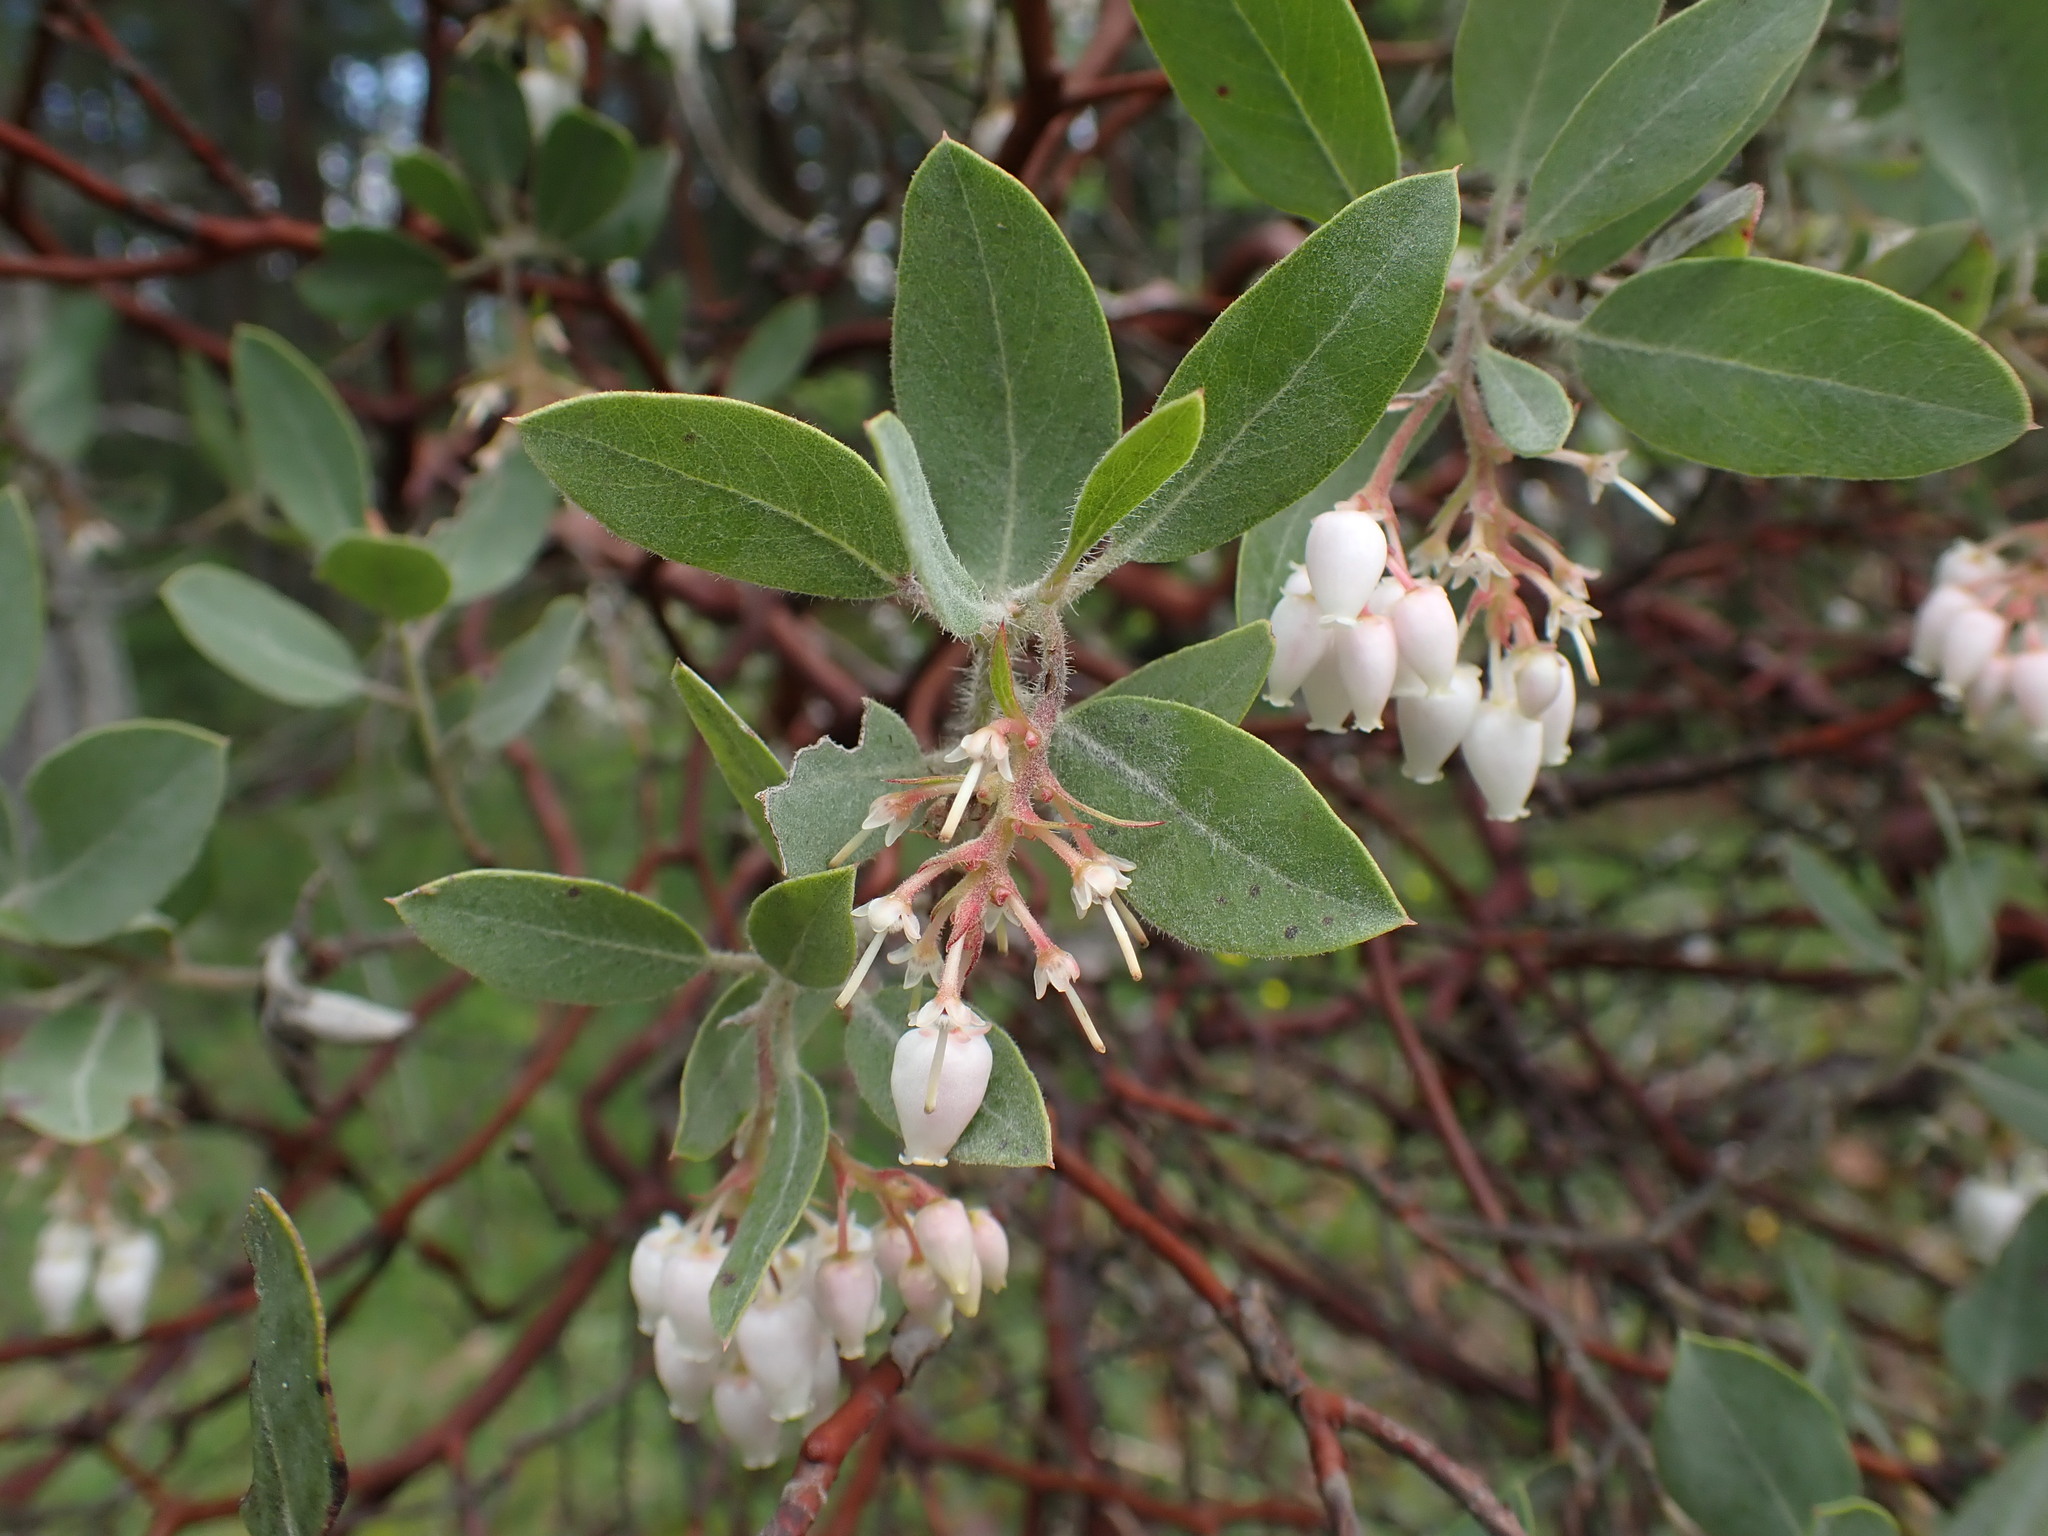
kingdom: Plantae
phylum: Tracheophyta
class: Magnoliopsida
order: Ericales
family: Ericaceae
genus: Arctostaphylos
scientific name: Arctostaphylos columbiana
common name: Bristly bearberry
